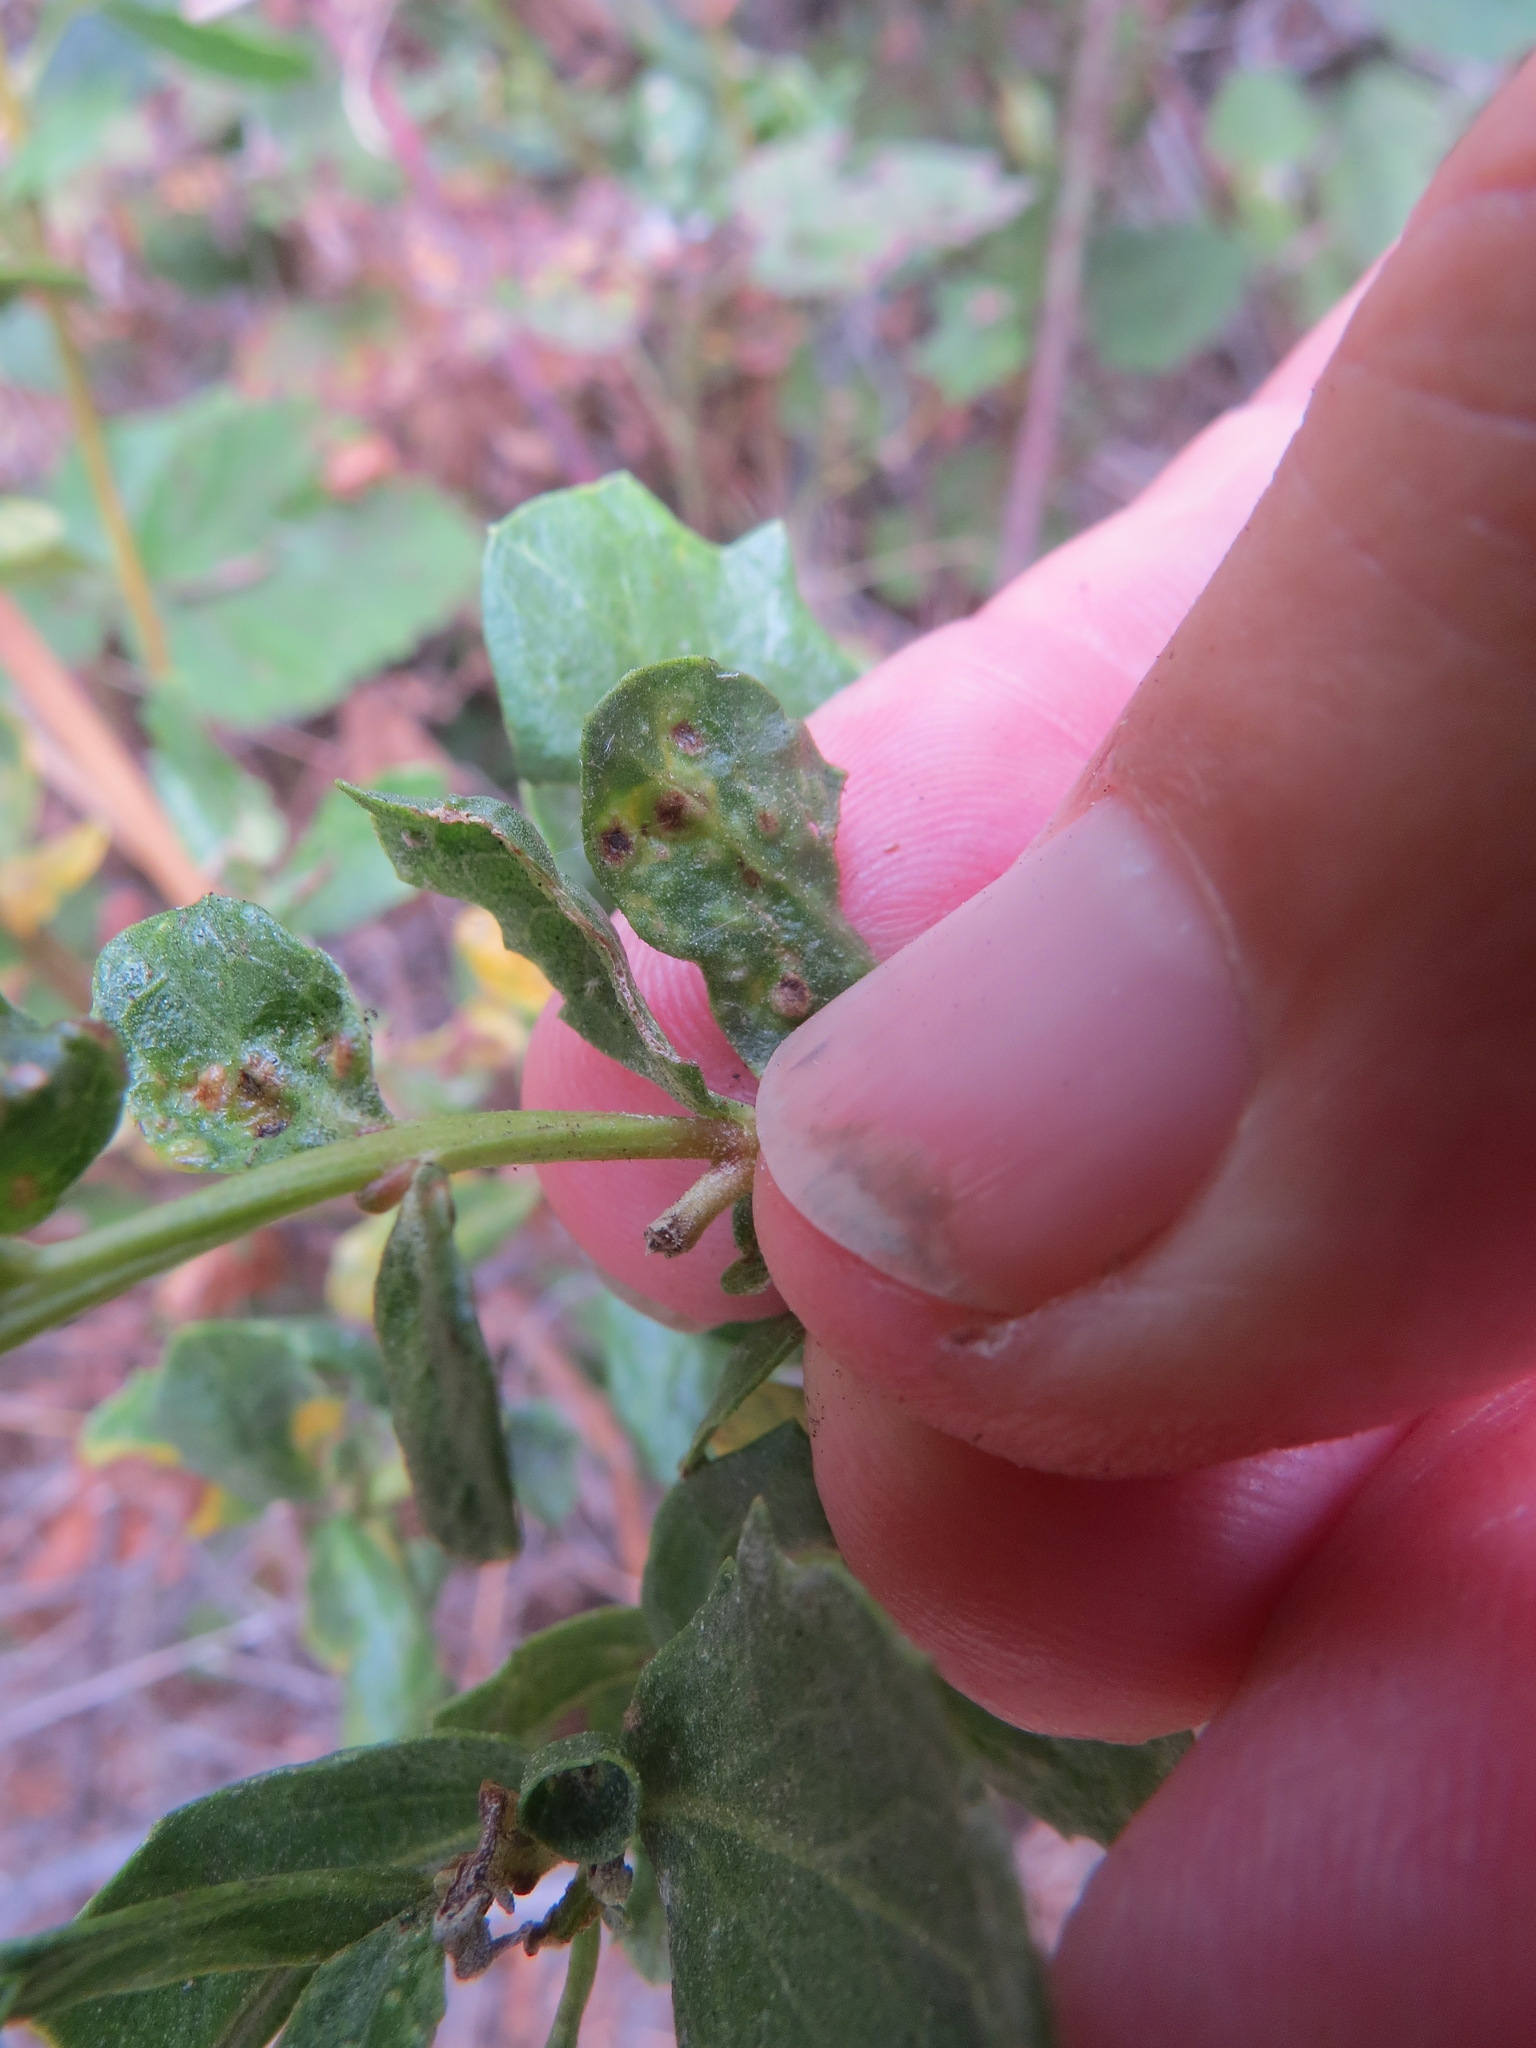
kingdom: Animalia
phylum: Arthropoda
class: Arachnida
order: Trombidiformes
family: Eriophyidae
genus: Aceria
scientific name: Aceria
